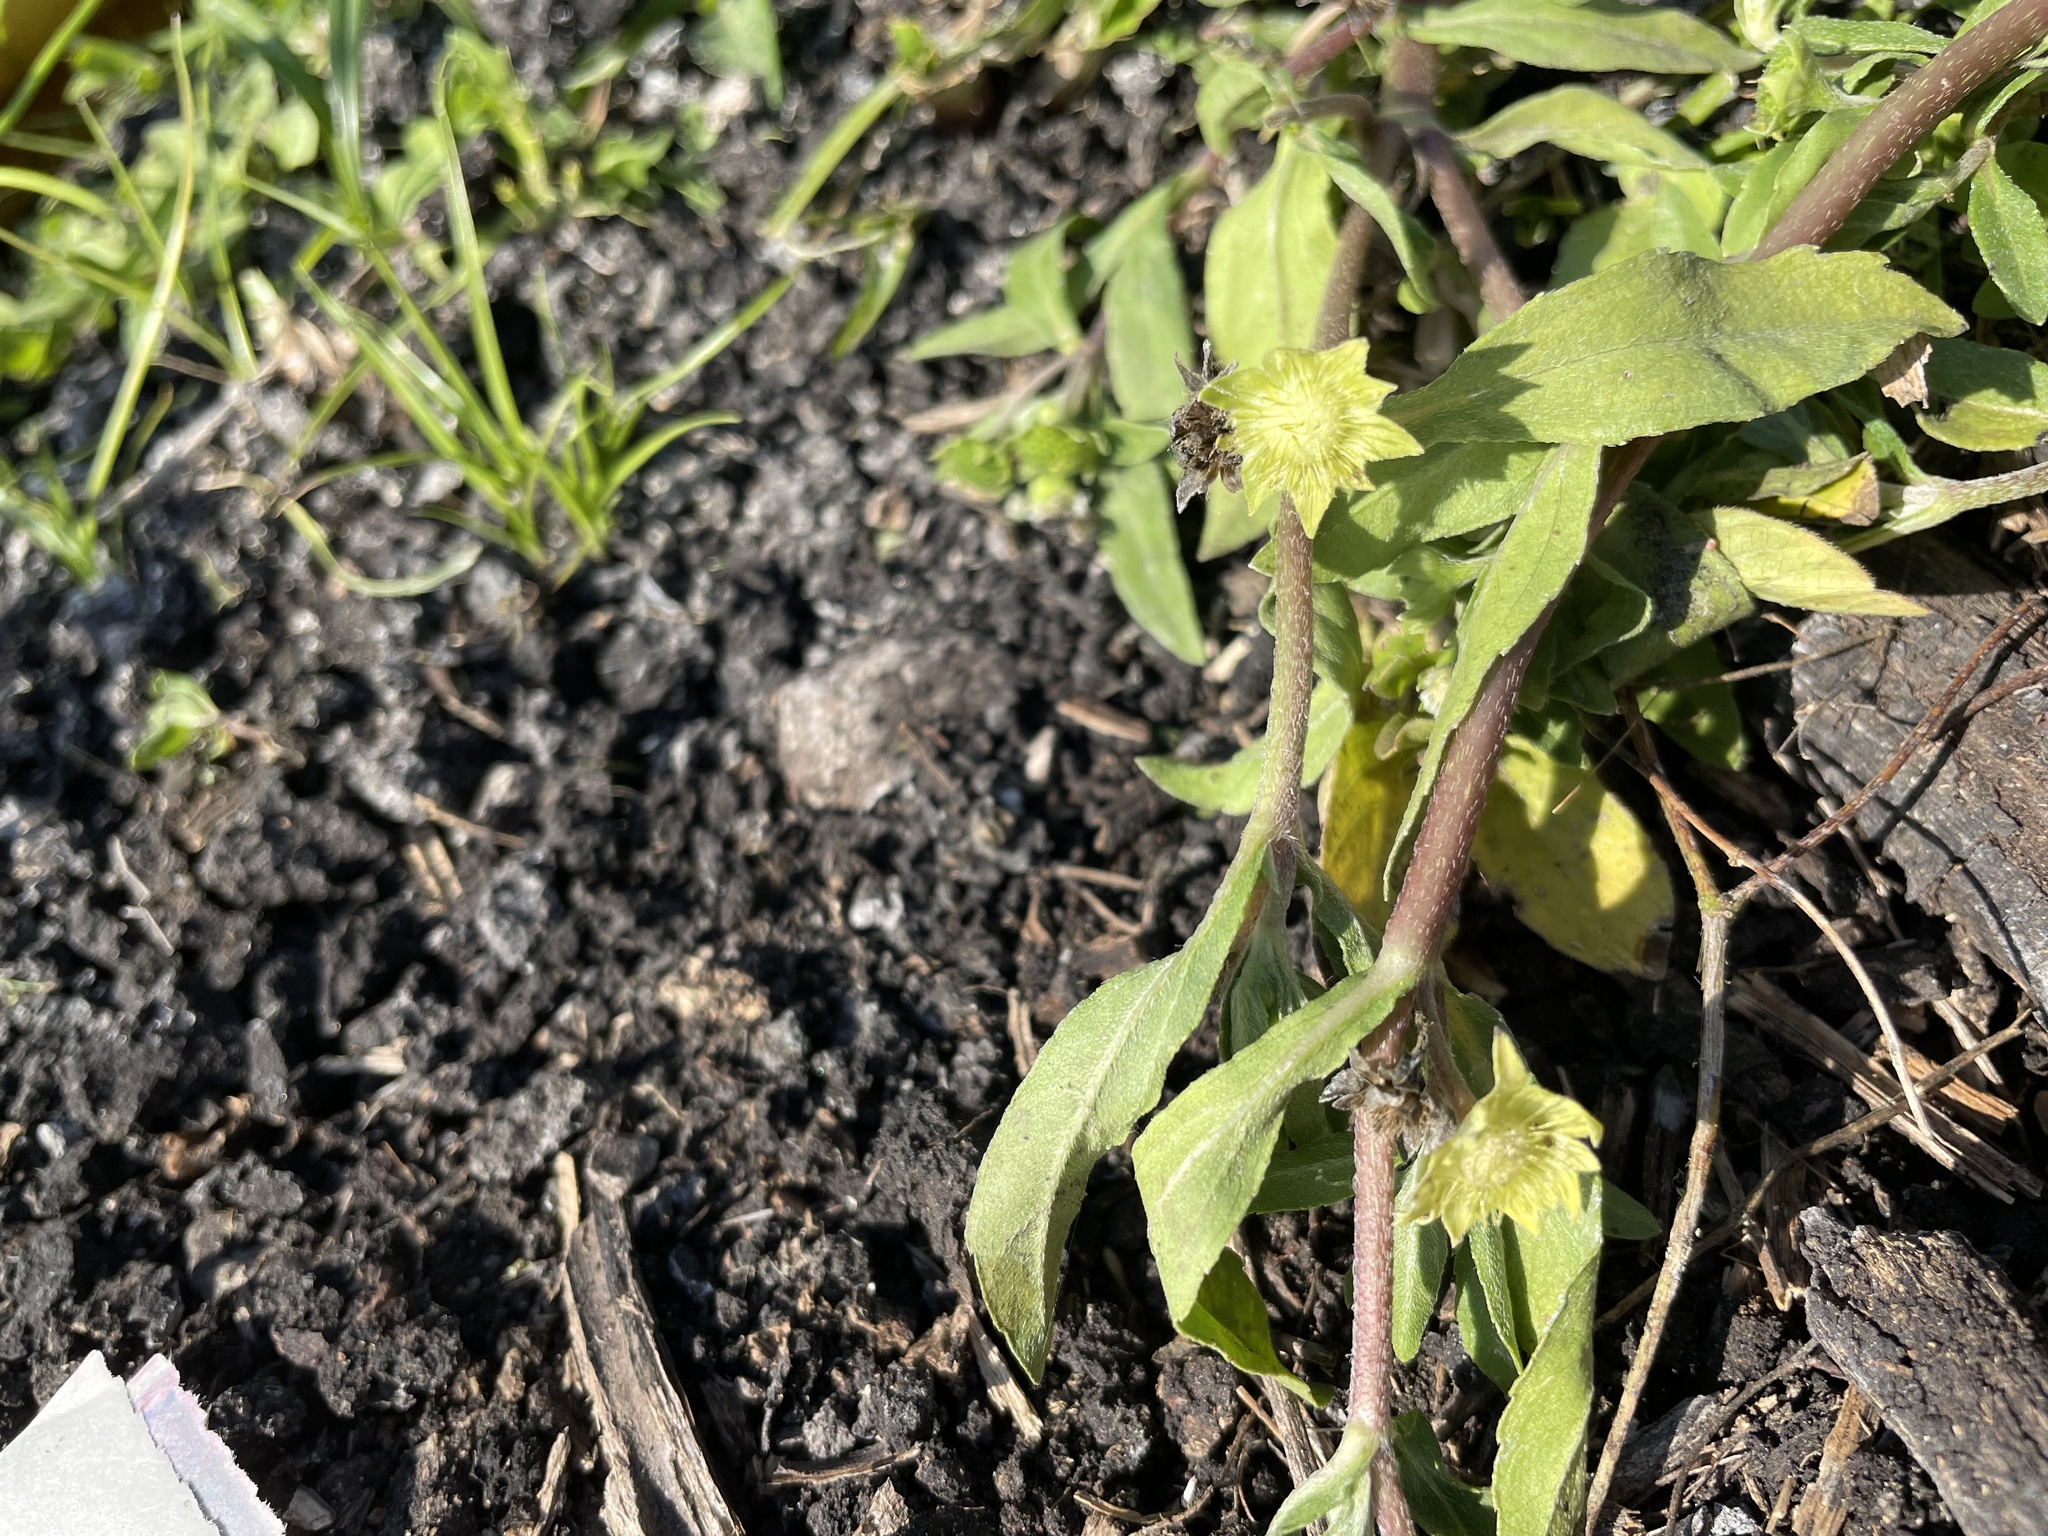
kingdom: Plantae
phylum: Tracheophyta
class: Magnoliopsida
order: Asterales
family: Asteraceae
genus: Eclipta
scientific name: Eclipta prostrata
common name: False daisy
